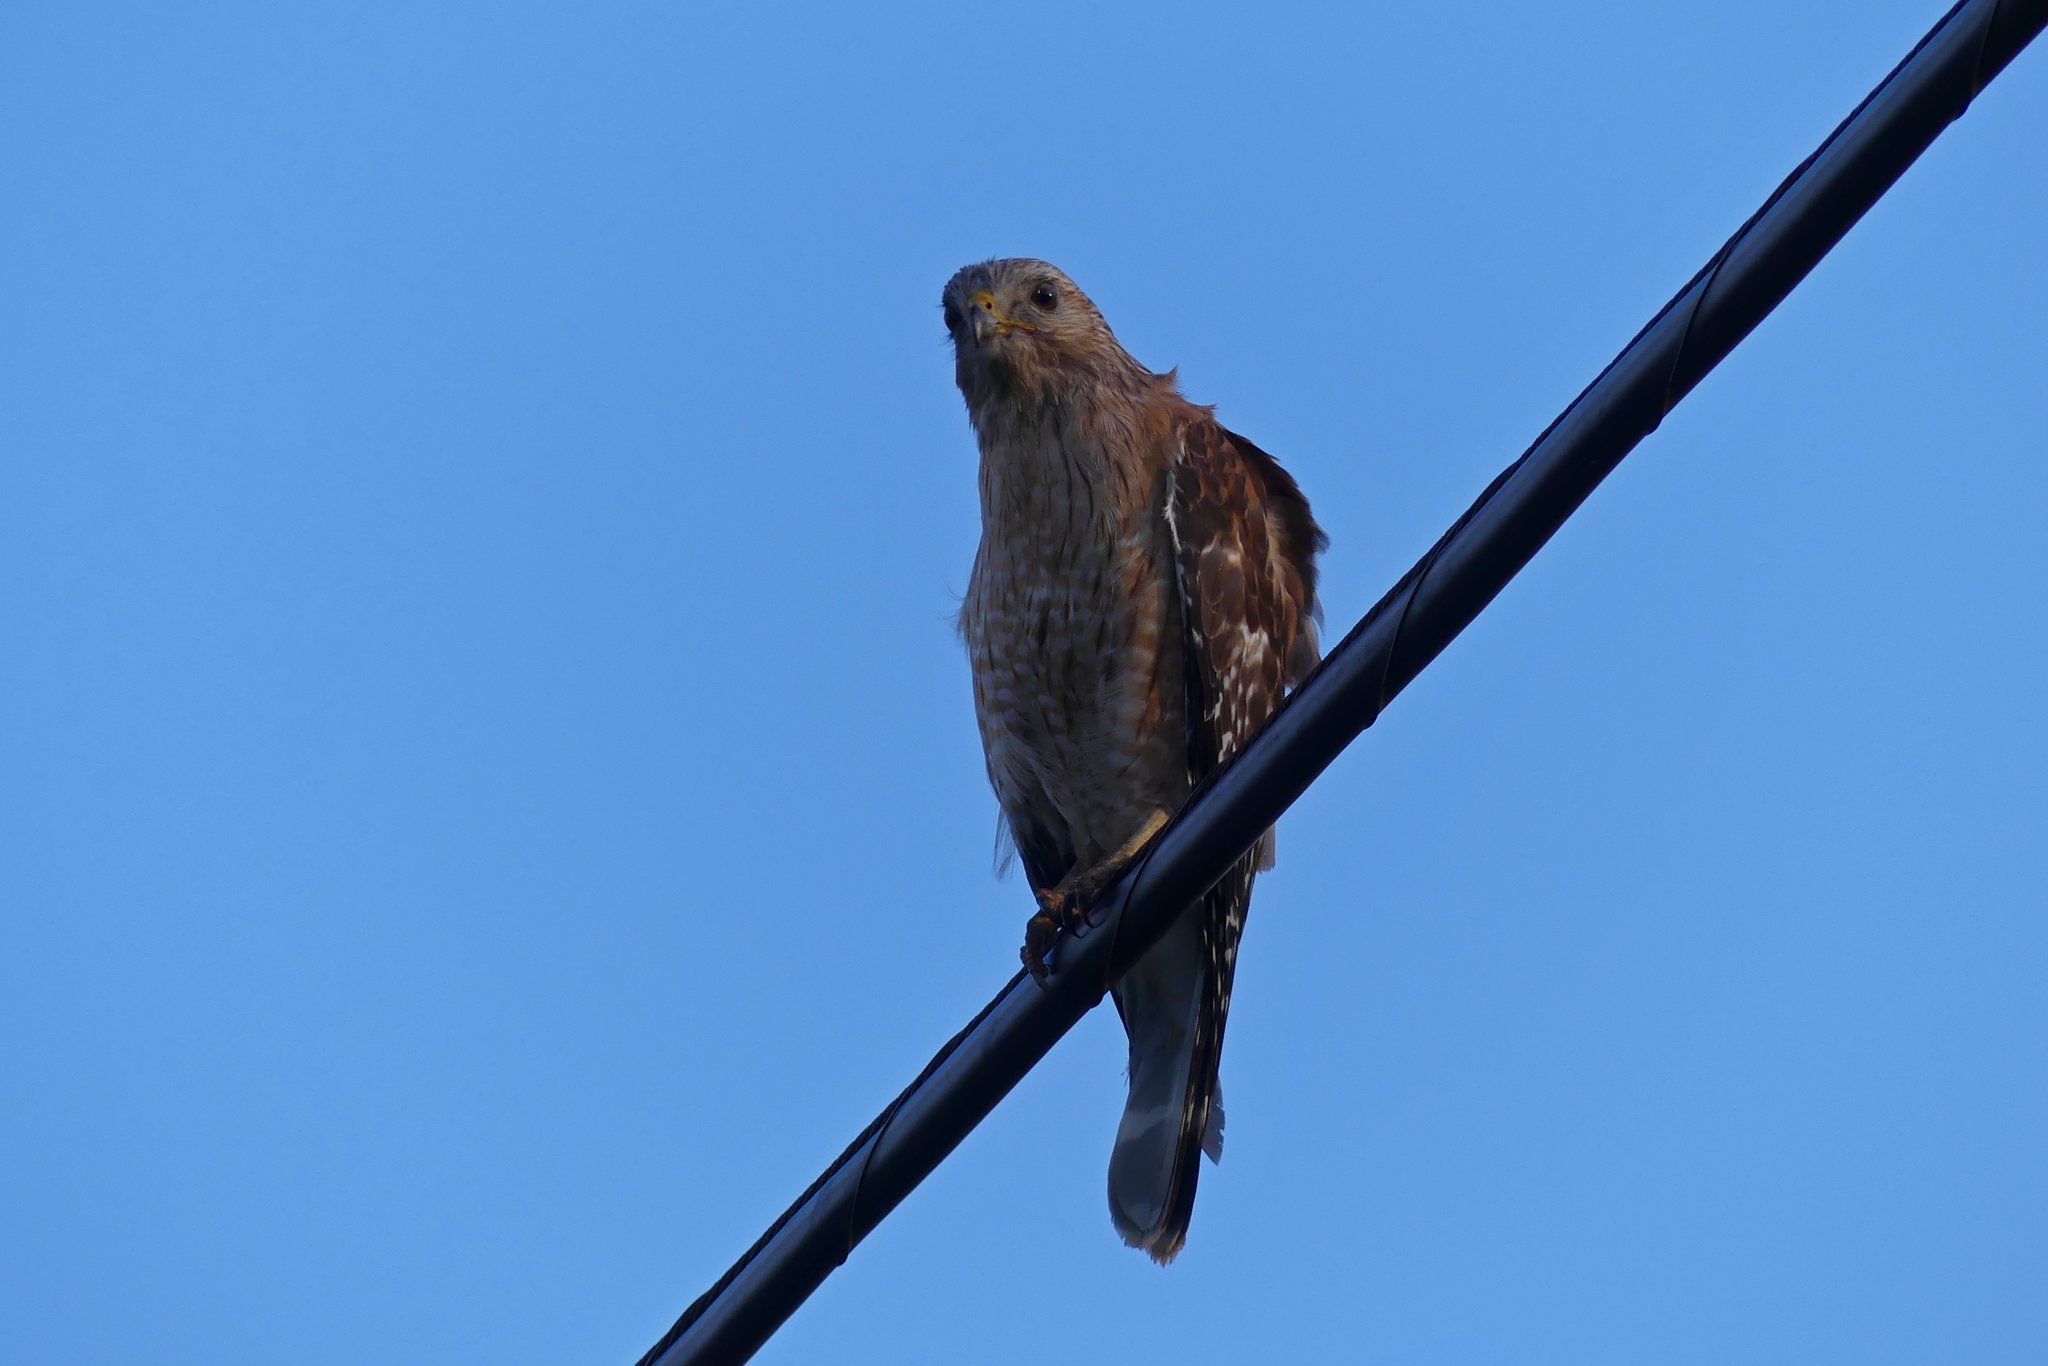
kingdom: Animalia
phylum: Chordata
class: Aves
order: Accipitriformes
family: Accipitridae
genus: Buteo
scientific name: Buteo lineatus
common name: Red-shouldered hawk
